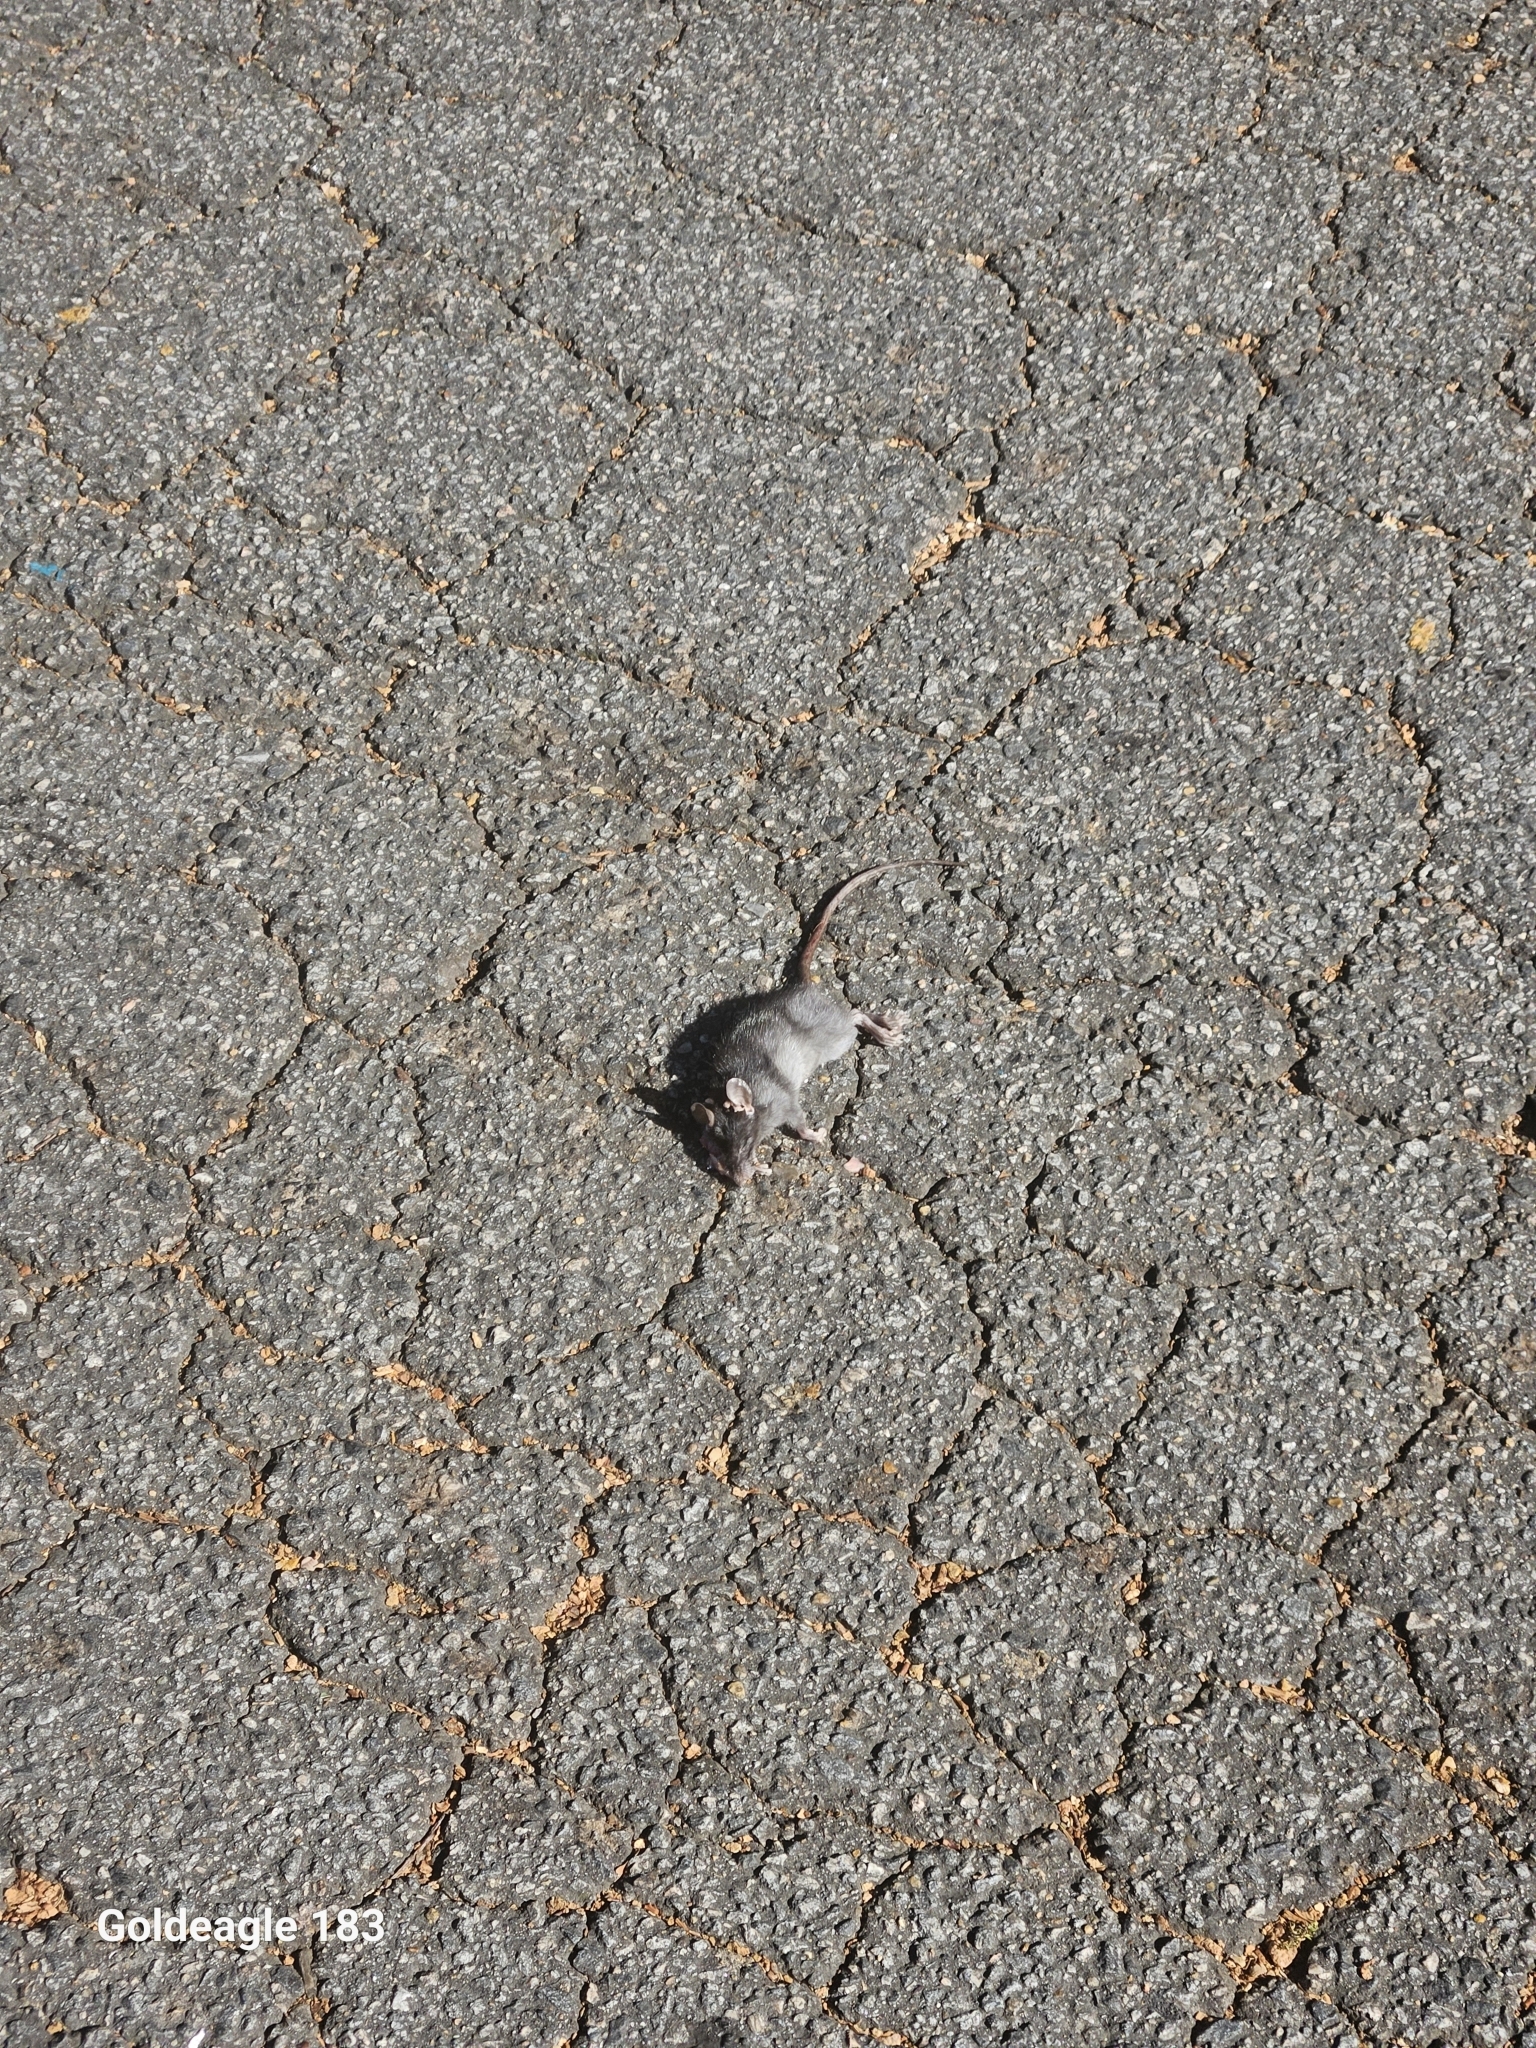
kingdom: Animalia
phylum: Chordata
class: Mammalia
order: Rodentia
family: Muridae
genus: Rattus
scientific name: Rattus rattus
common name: Black rat
